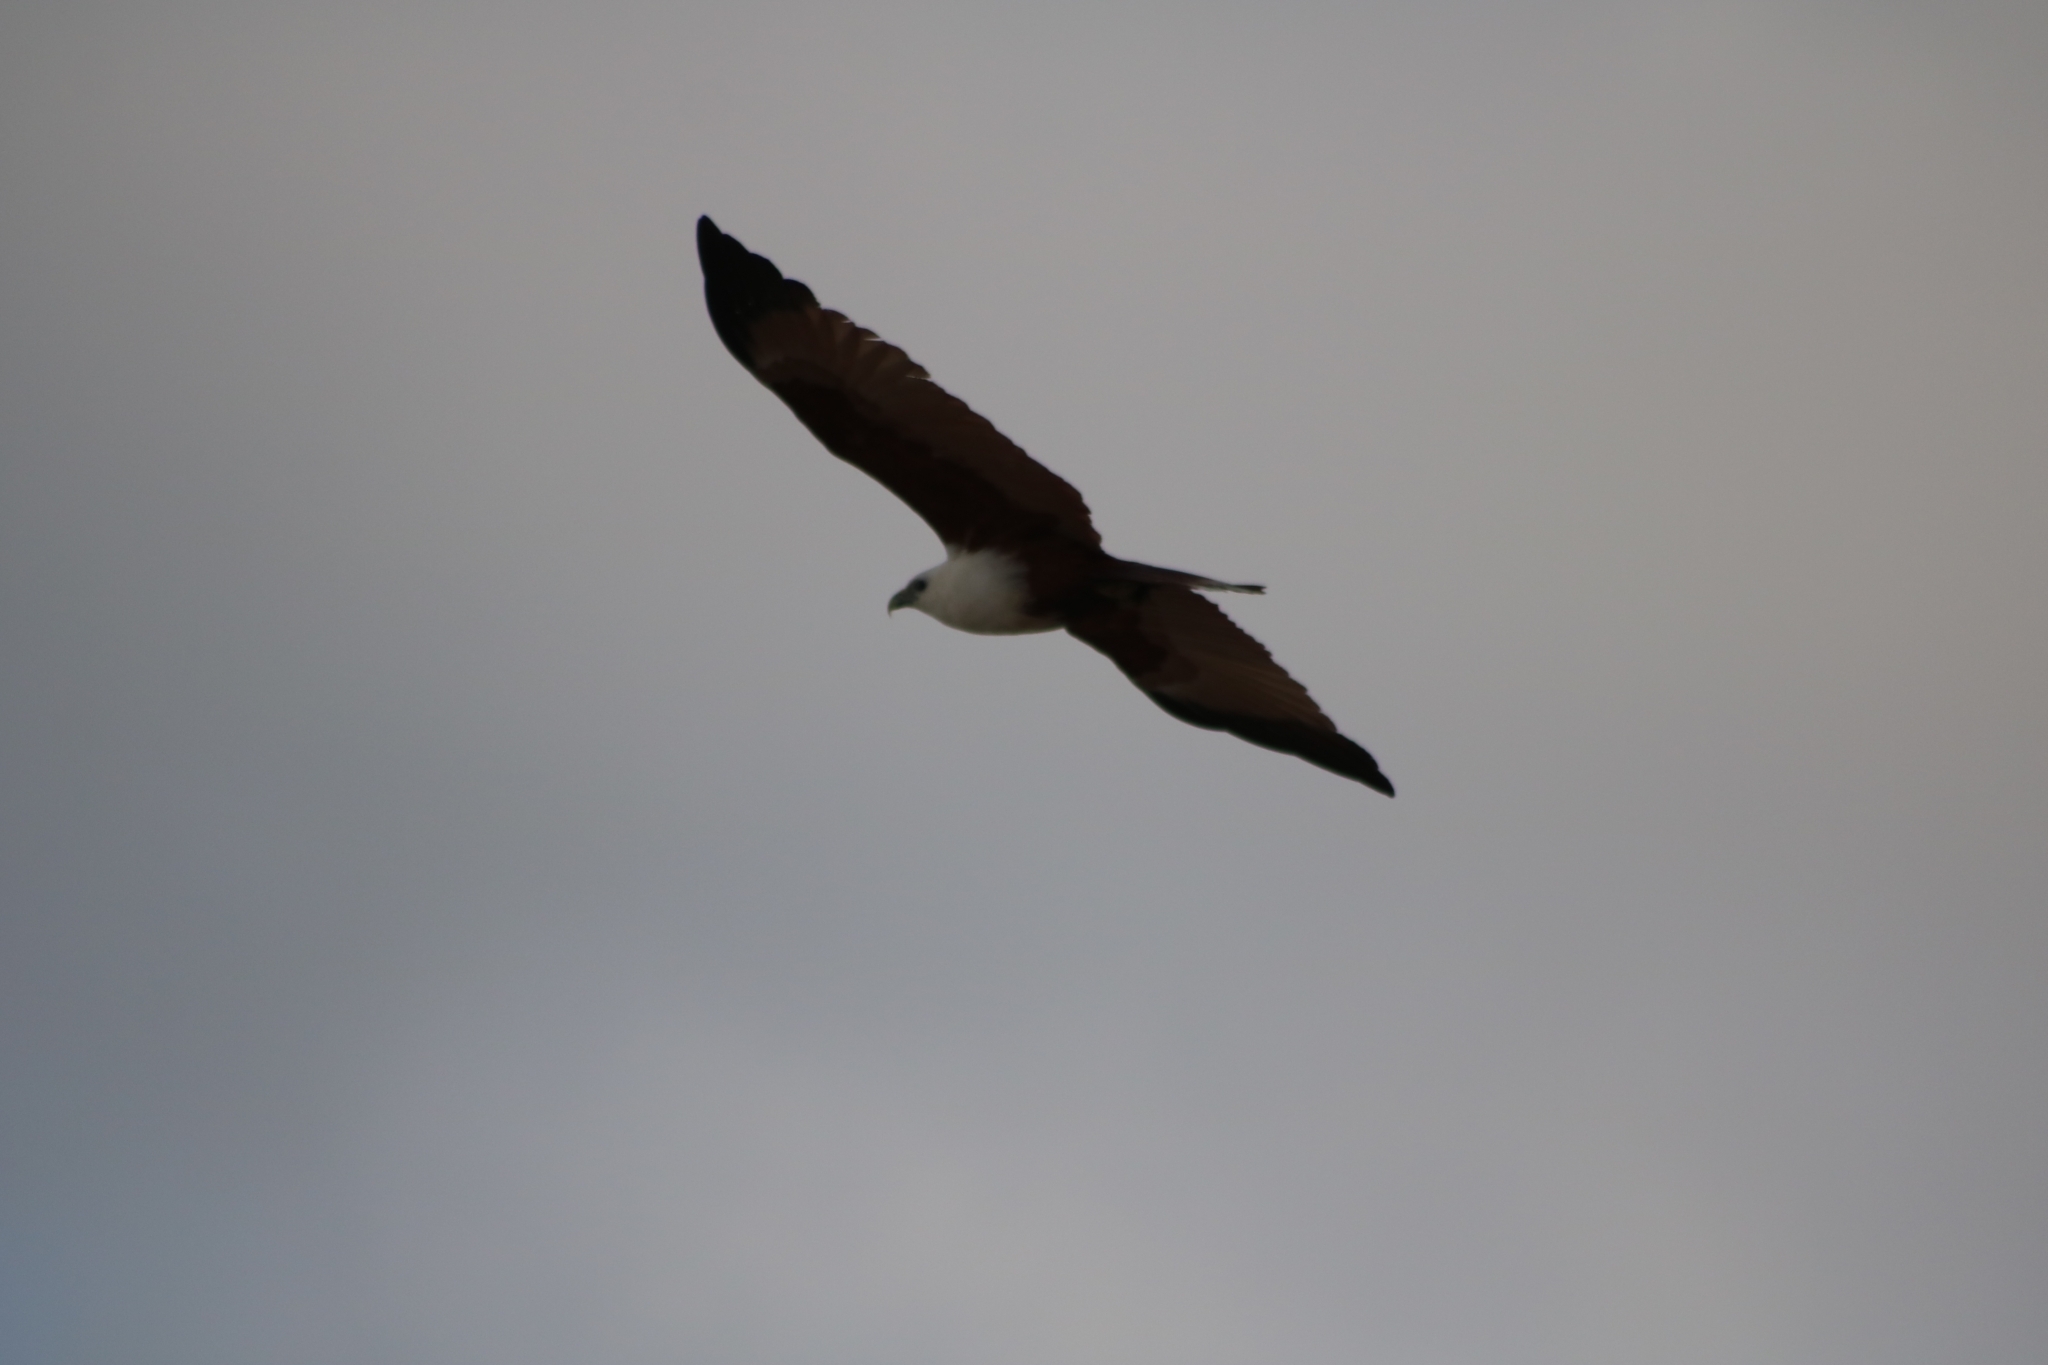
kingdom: Animalia
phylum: Chordata
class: Aves
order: Accipitriformes
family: Accipitridae
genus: Haliastur
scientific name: Haliastur indus
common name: Brahminy kite
